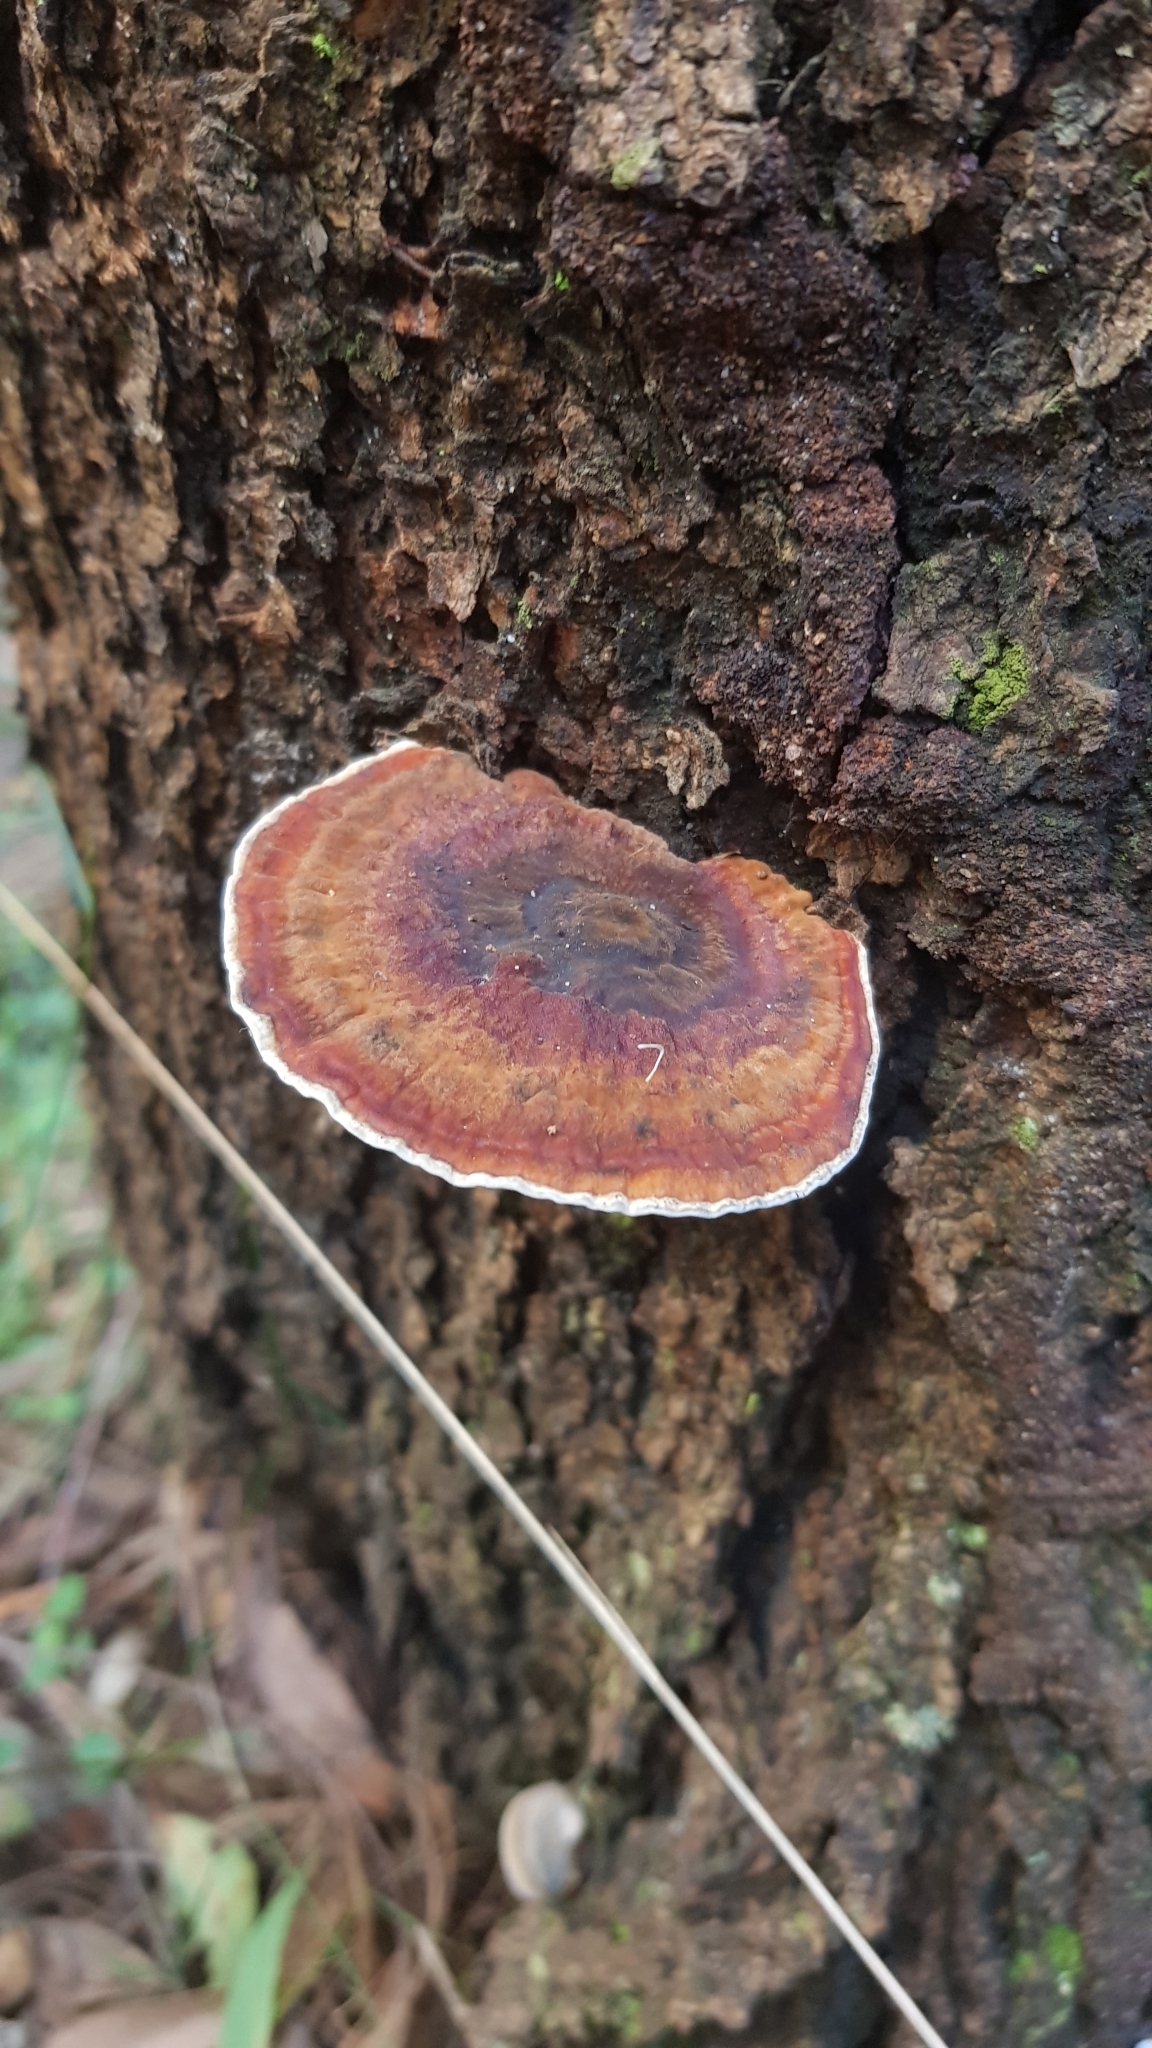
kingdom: Fungi
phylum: Basidiomycota
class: Agaricomycetes
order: Polyporales
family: Ganodermataceae
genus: Sanguinoderma
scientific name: Sanguinoderma rude
